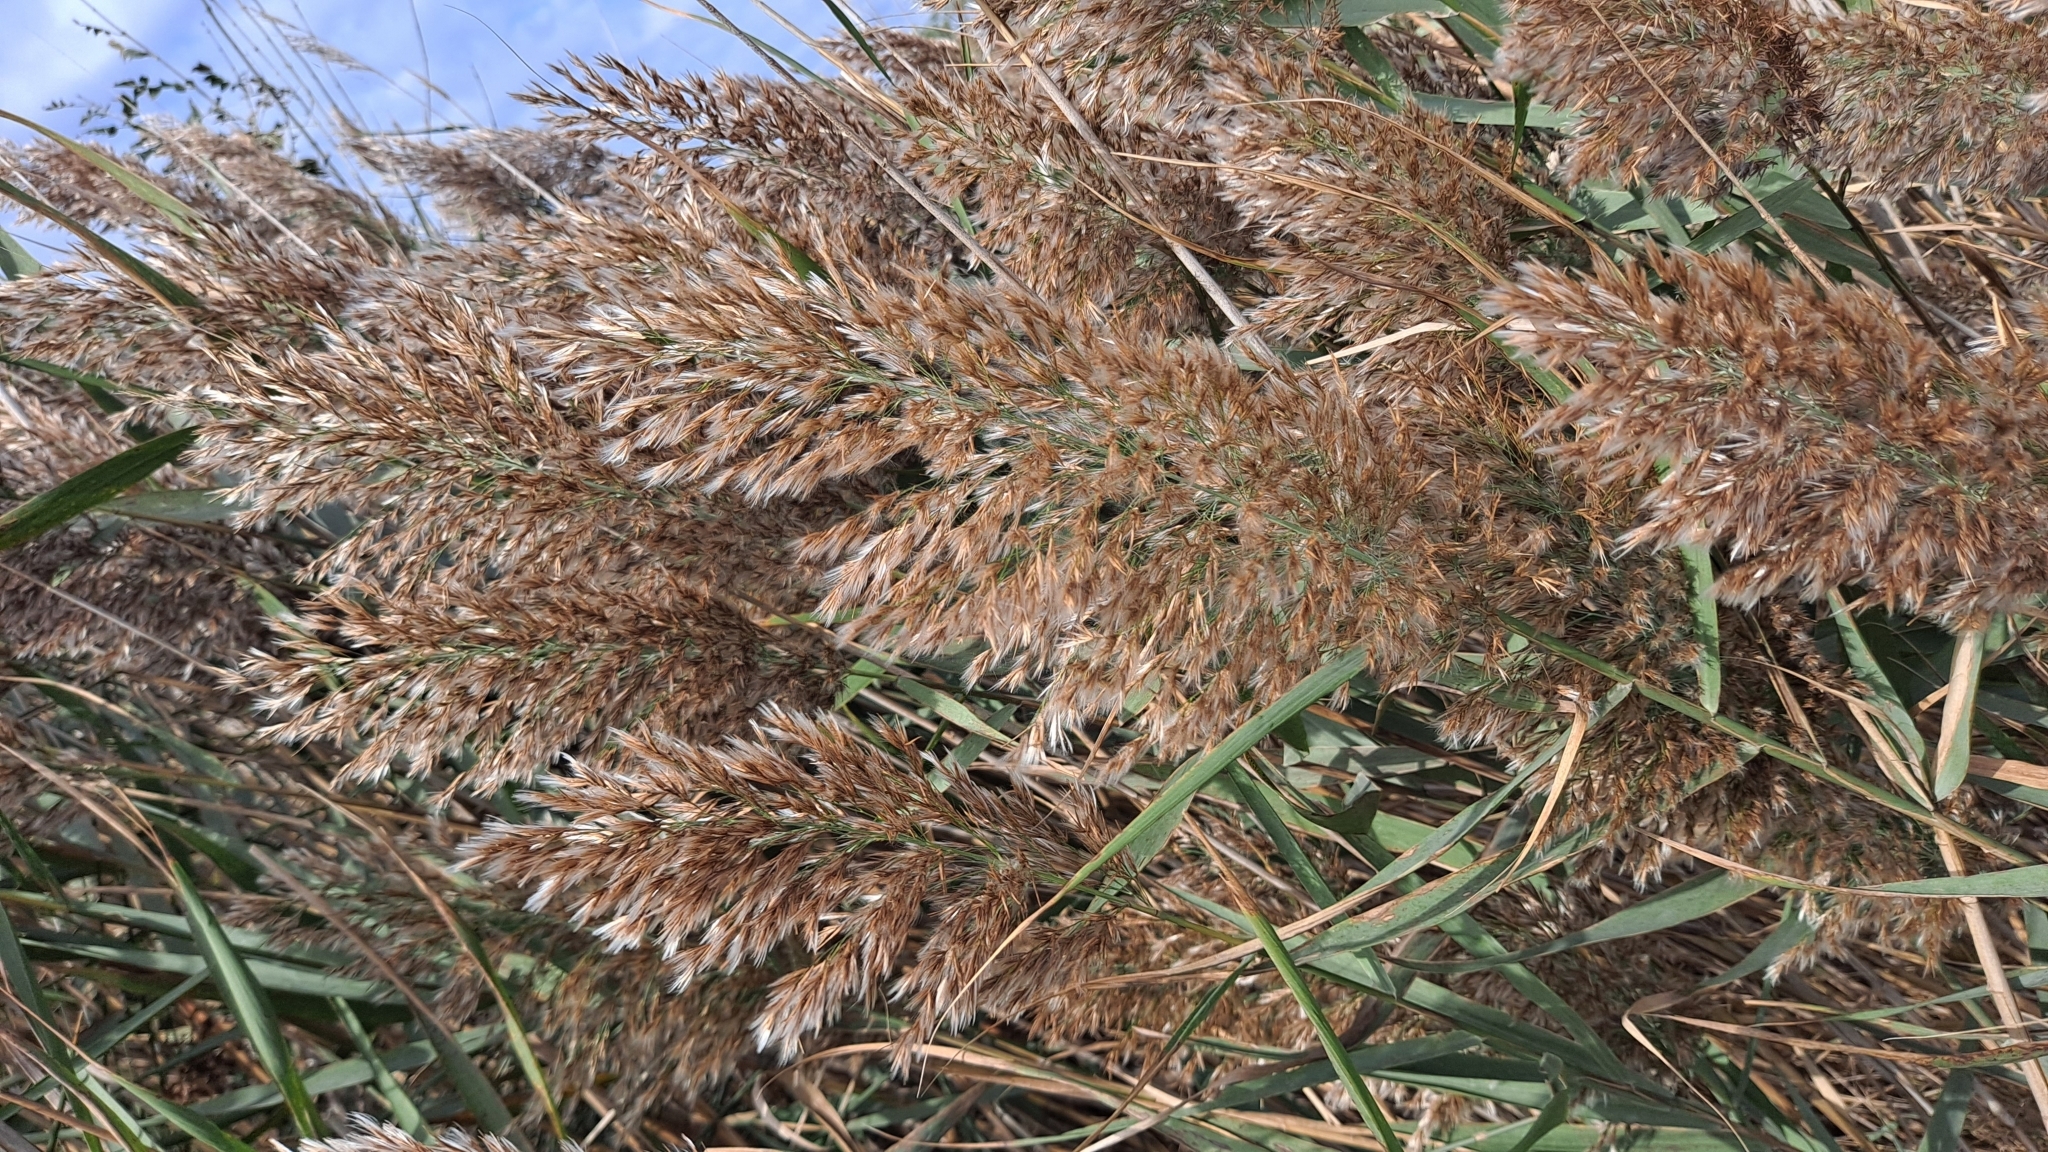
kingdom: Plantae
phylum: Tracheophyta
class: Liliopsida
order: Poales
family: Poaceae
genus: Phragmites
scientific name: Phragmites australis
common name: Common reed
